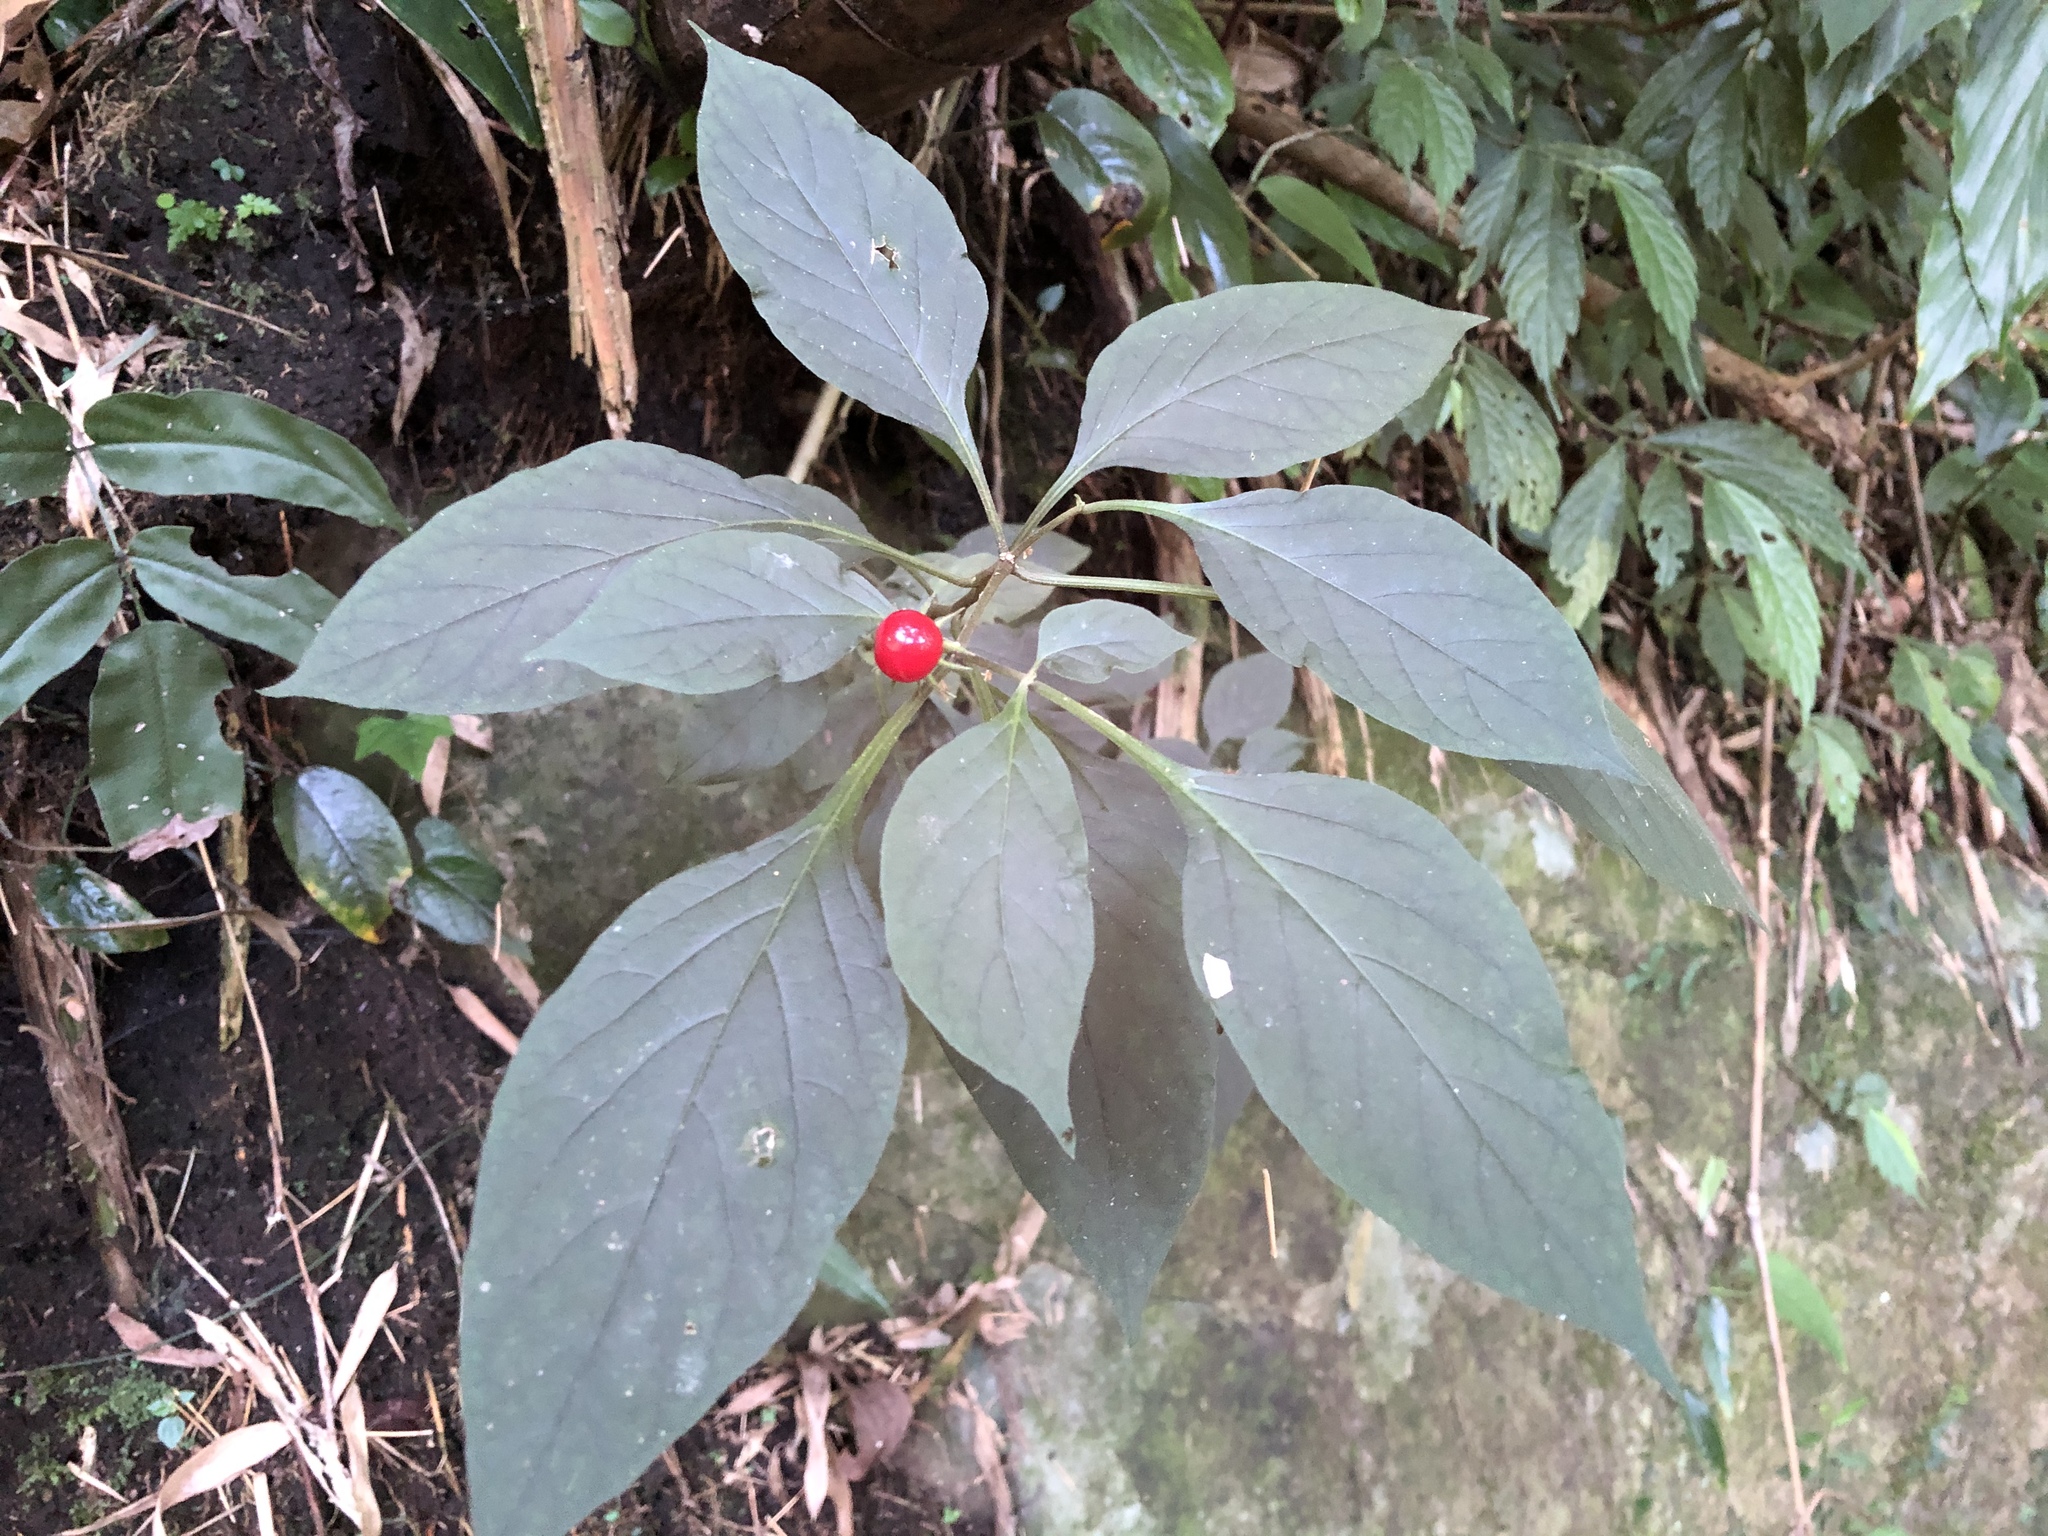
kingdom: Plantae
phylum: Tracheophyta
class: Magnoliopsida
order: Solanales
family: Solanaceae
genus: Lycianthes
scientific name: Lycianthes biflora
